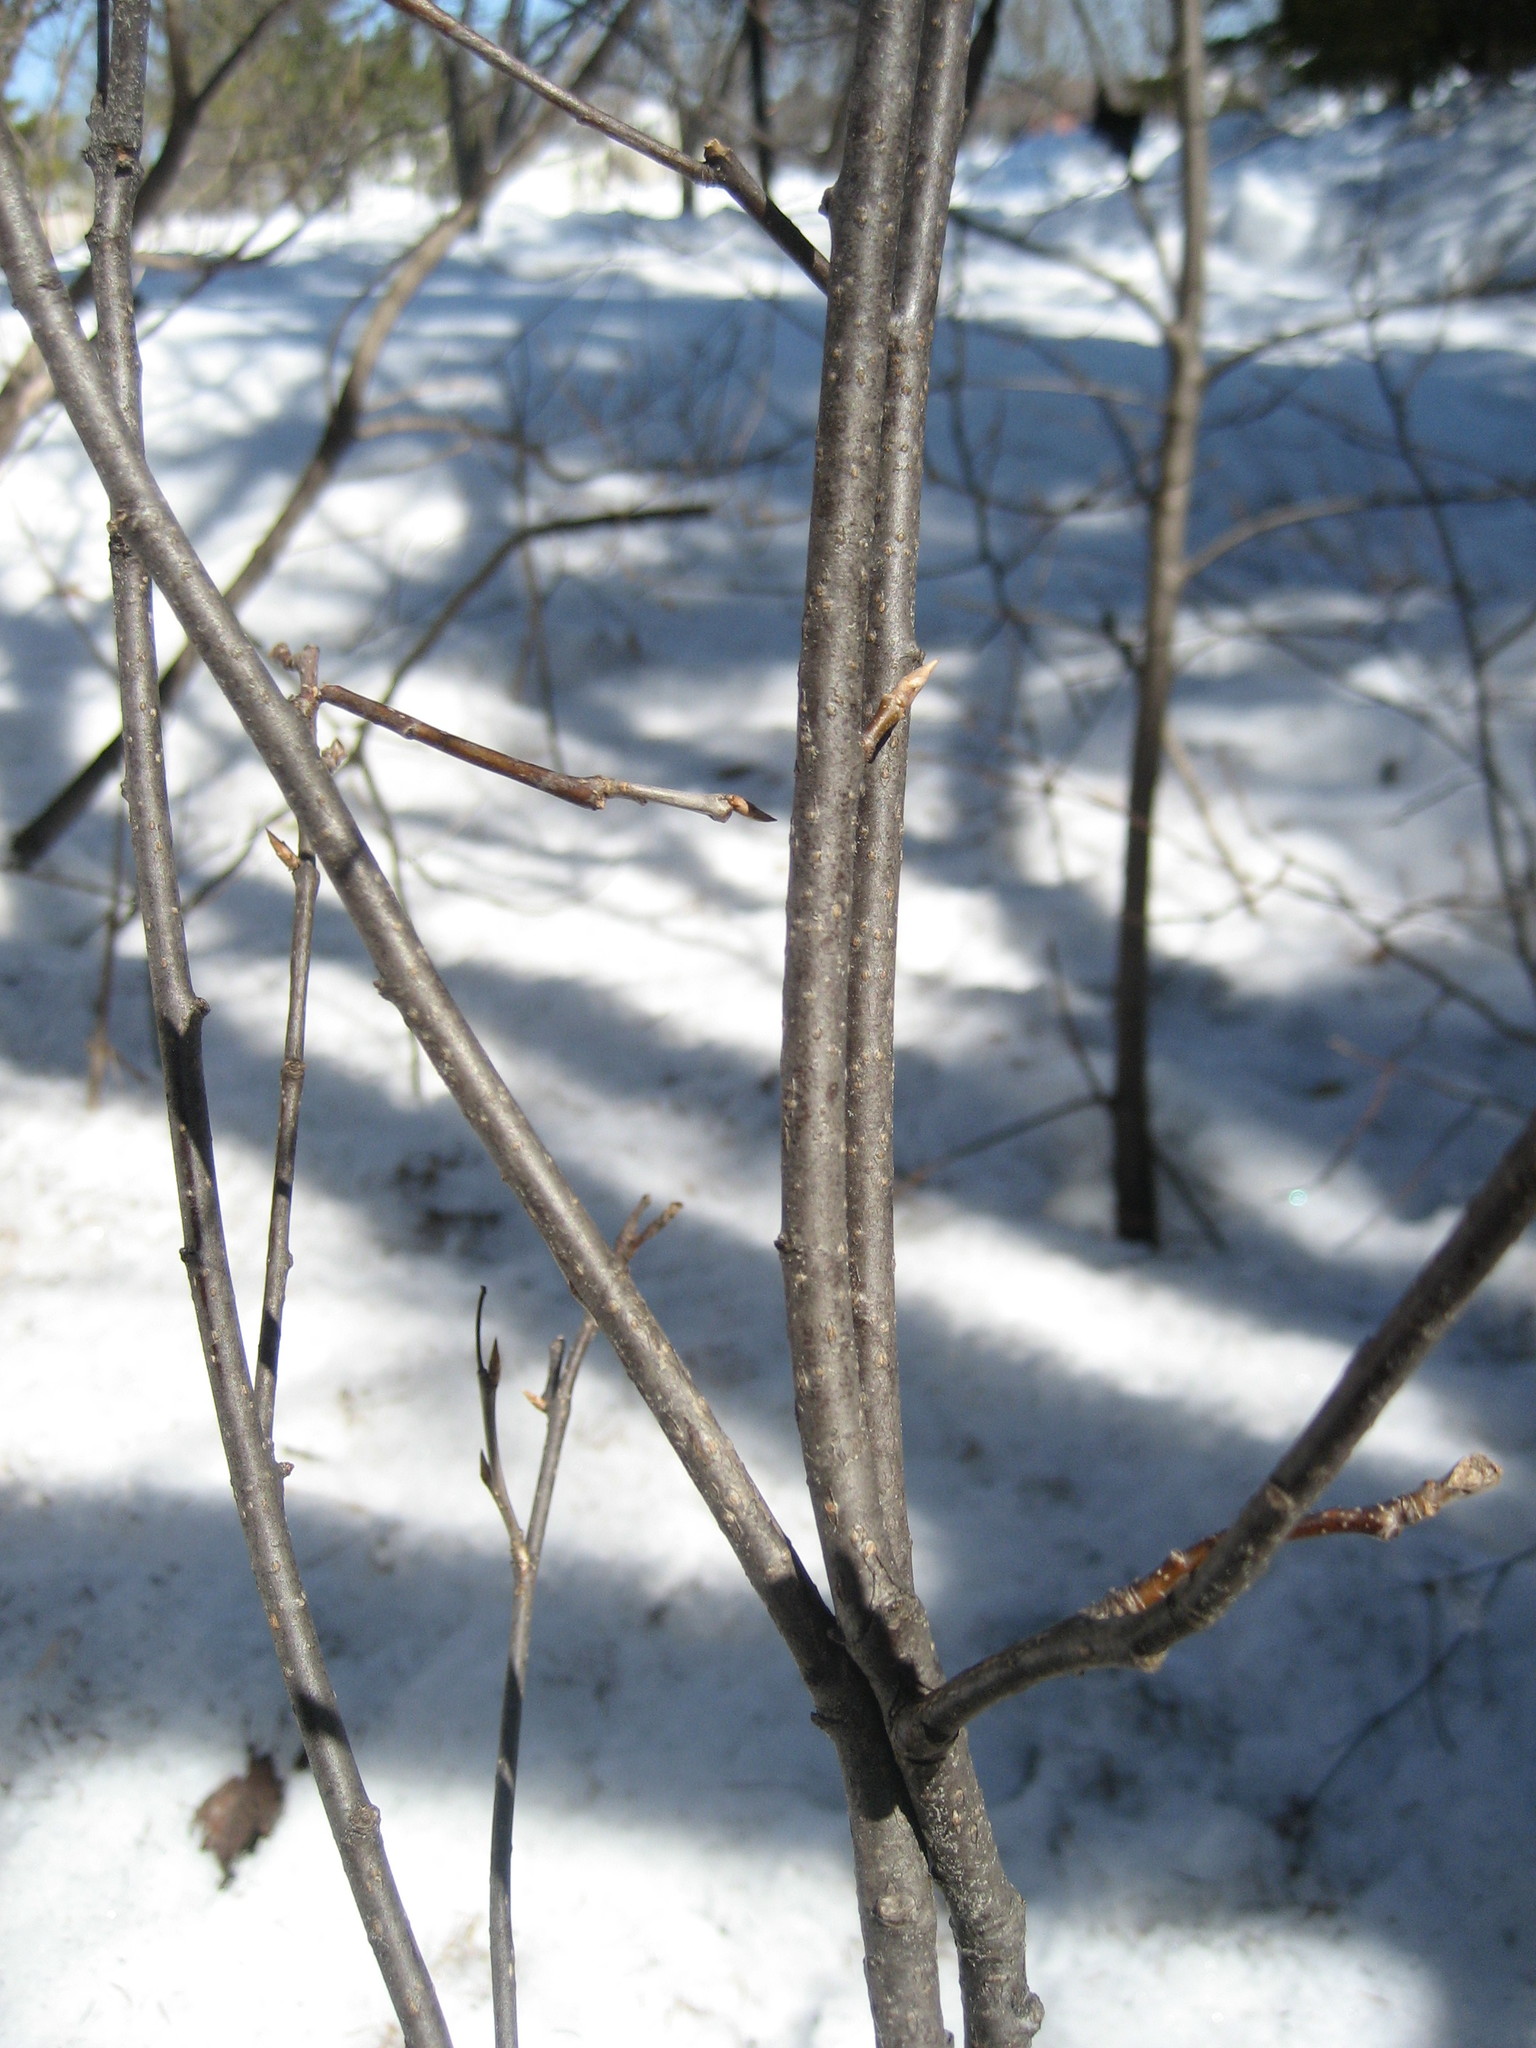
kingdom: Plantae
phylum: Tracheophyta
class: Magnoliopsida
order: Rosales
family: Rosaceae
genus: Prunus
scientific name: Prunus virginiana
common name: Chokecherry
